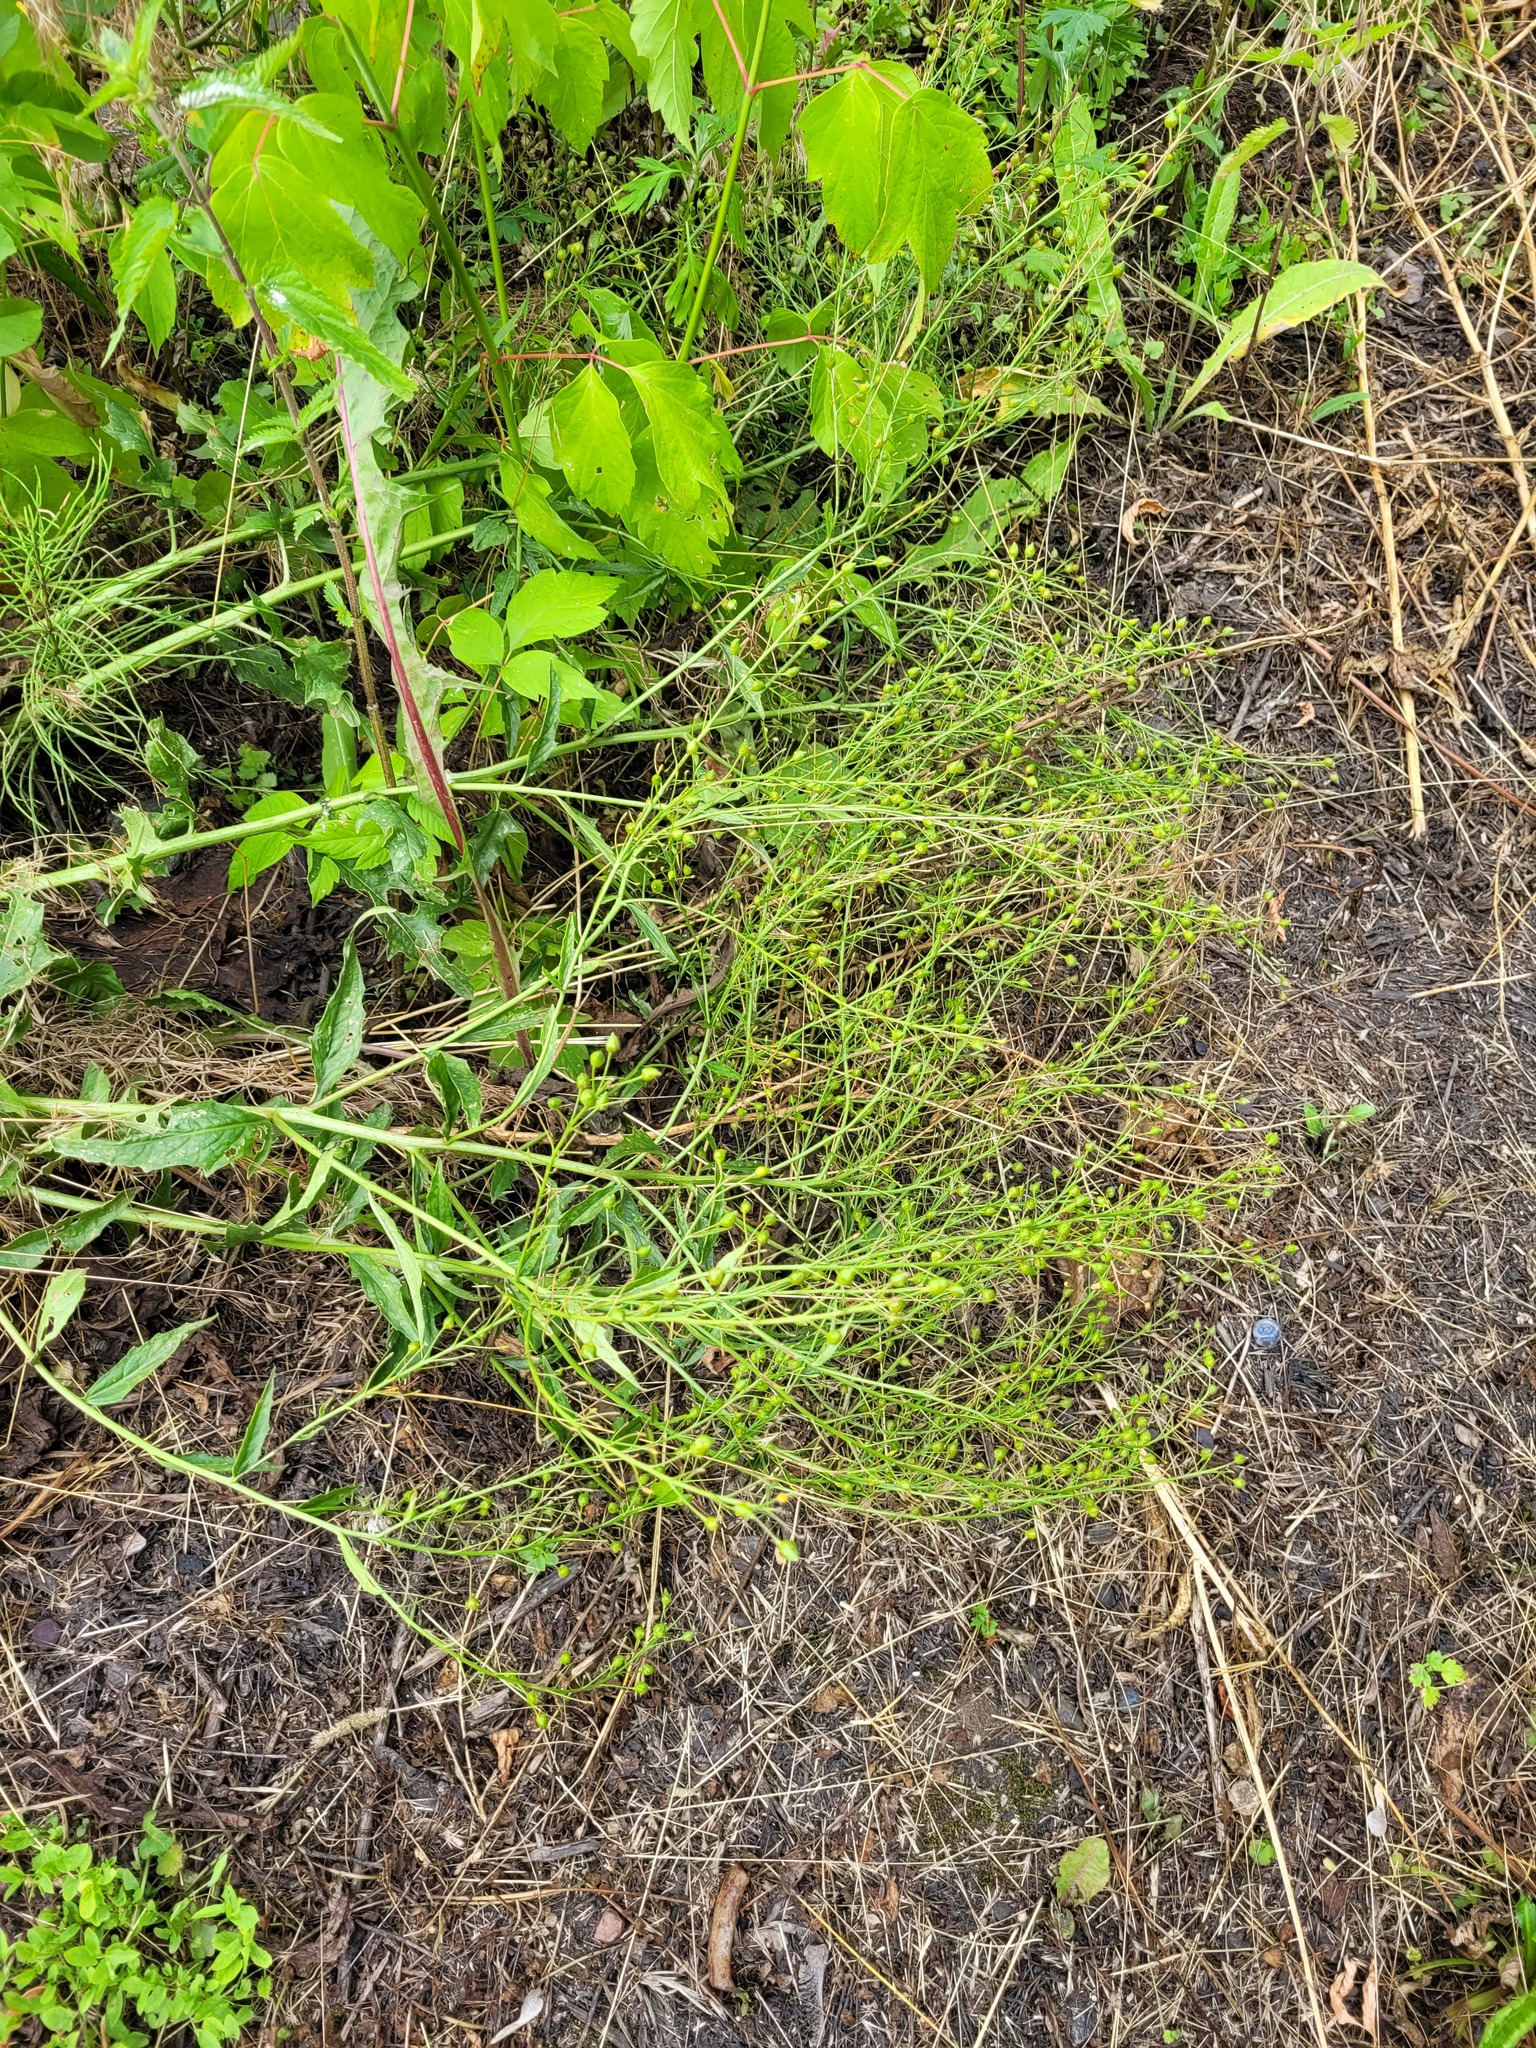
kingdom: Plantae
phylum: Tracheophyta
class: Magnoliopsida
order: Brassicales
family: Brassicaceae
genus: Bunias
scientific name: Bunias orientalis
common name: Warty-cabbage
